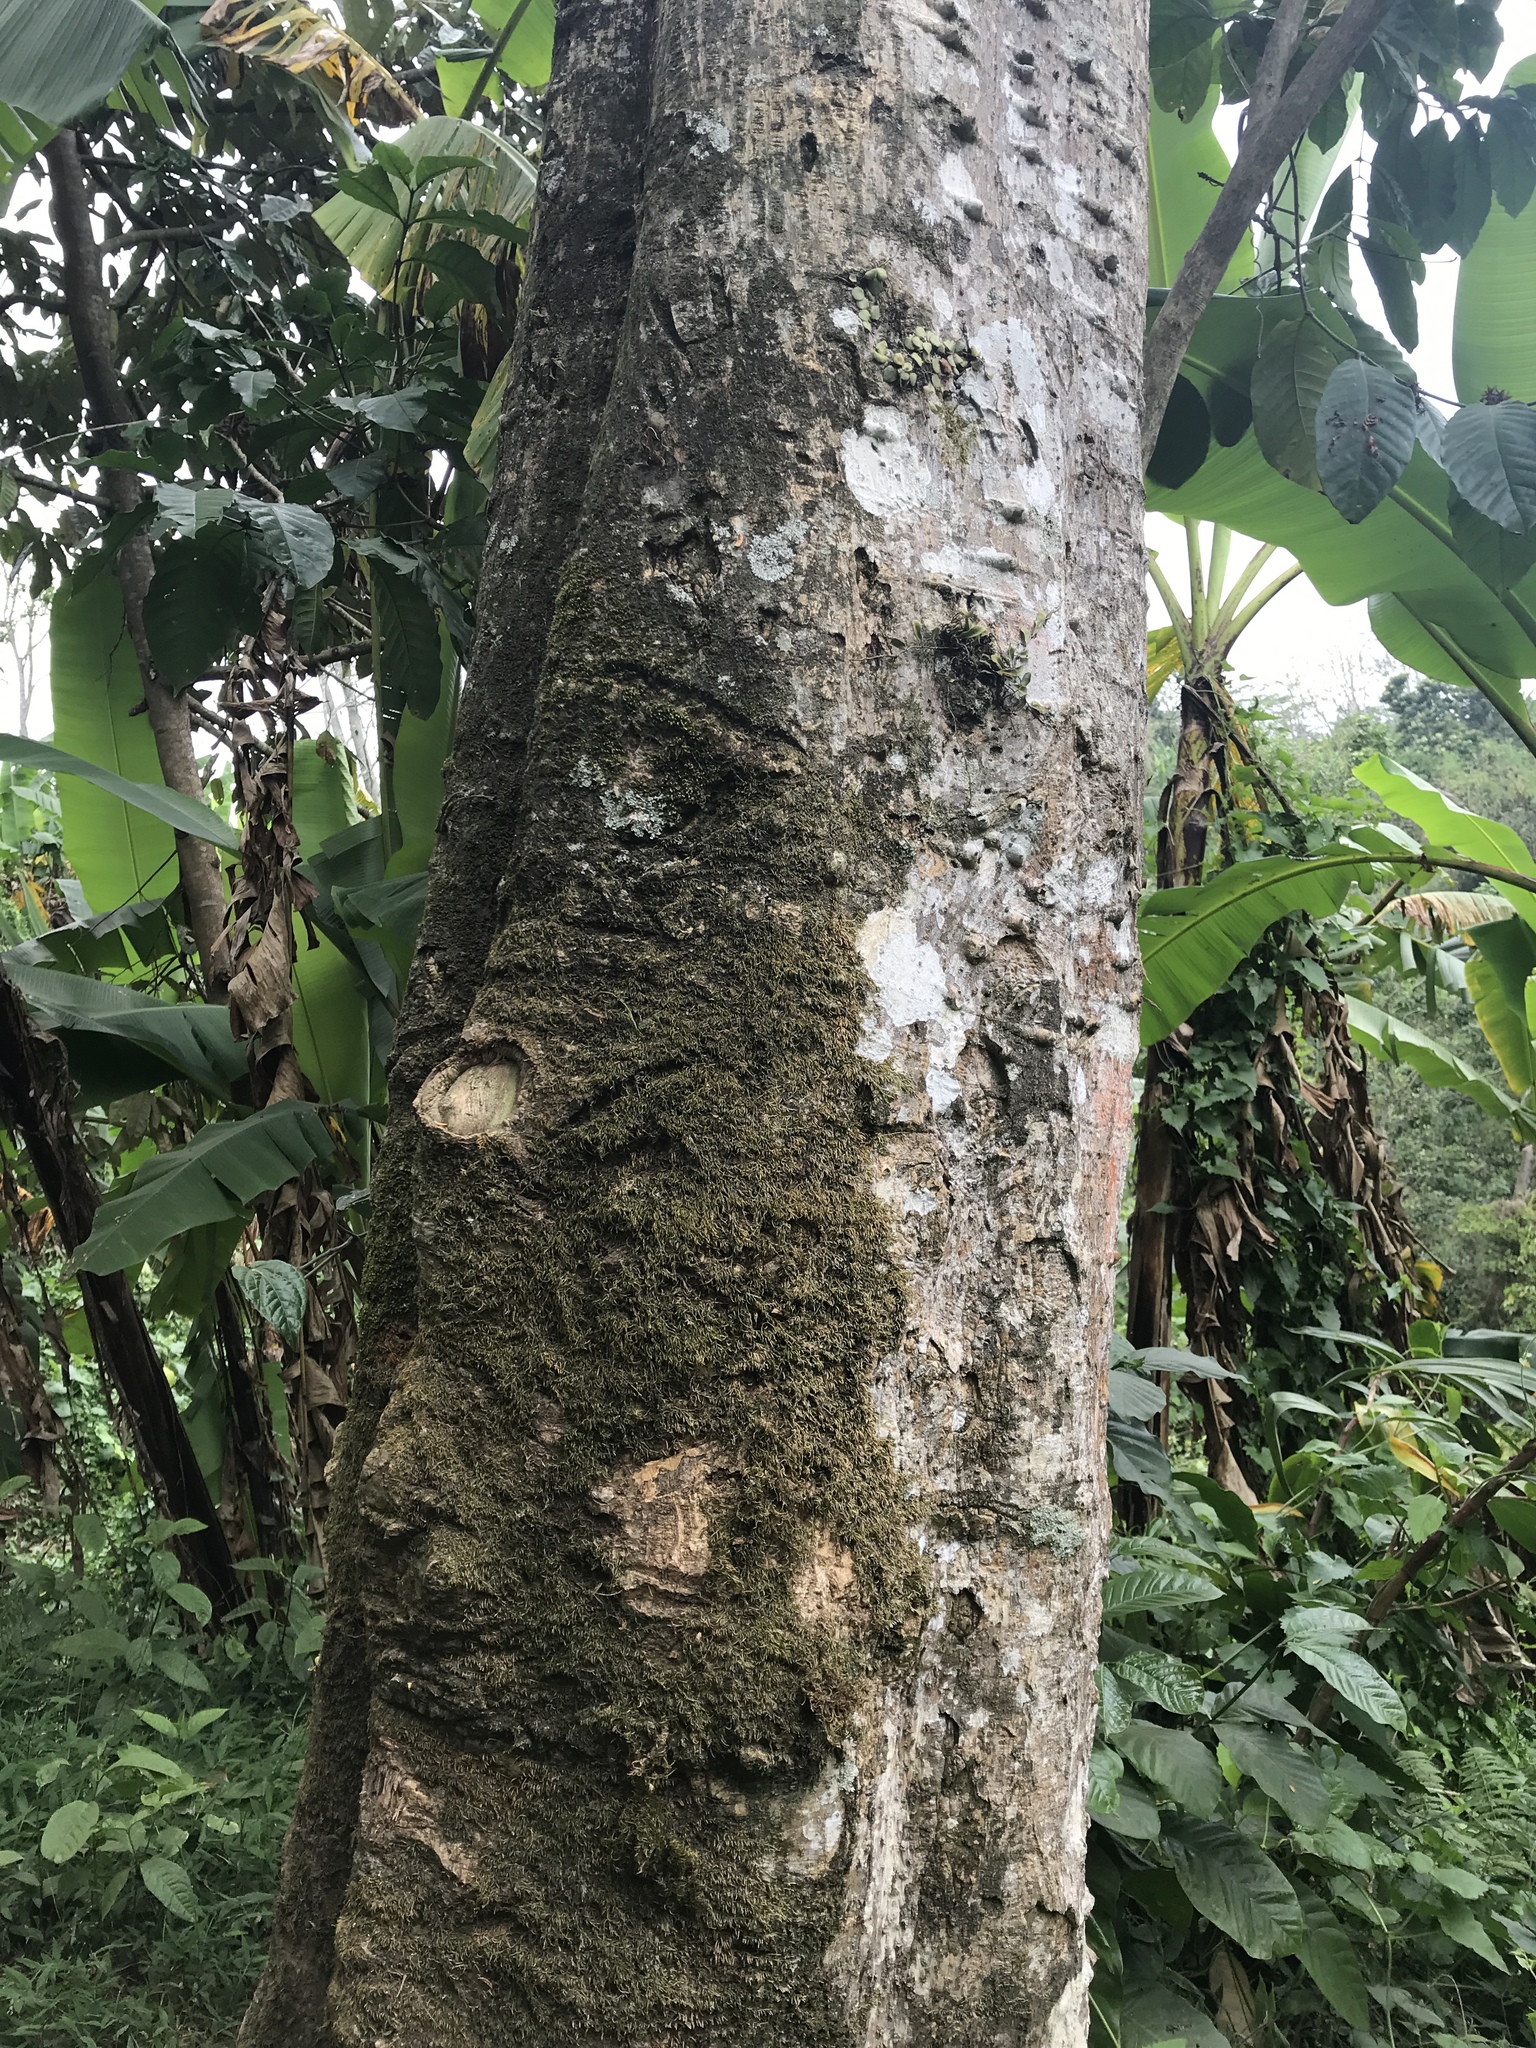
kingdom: Plantae
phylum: Tracheophyta
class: Magnoliopsida
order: Malvales
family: Malvaceae
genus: Talipariti
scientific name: Talipariti tiliaceum
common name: Sea hibiscus
